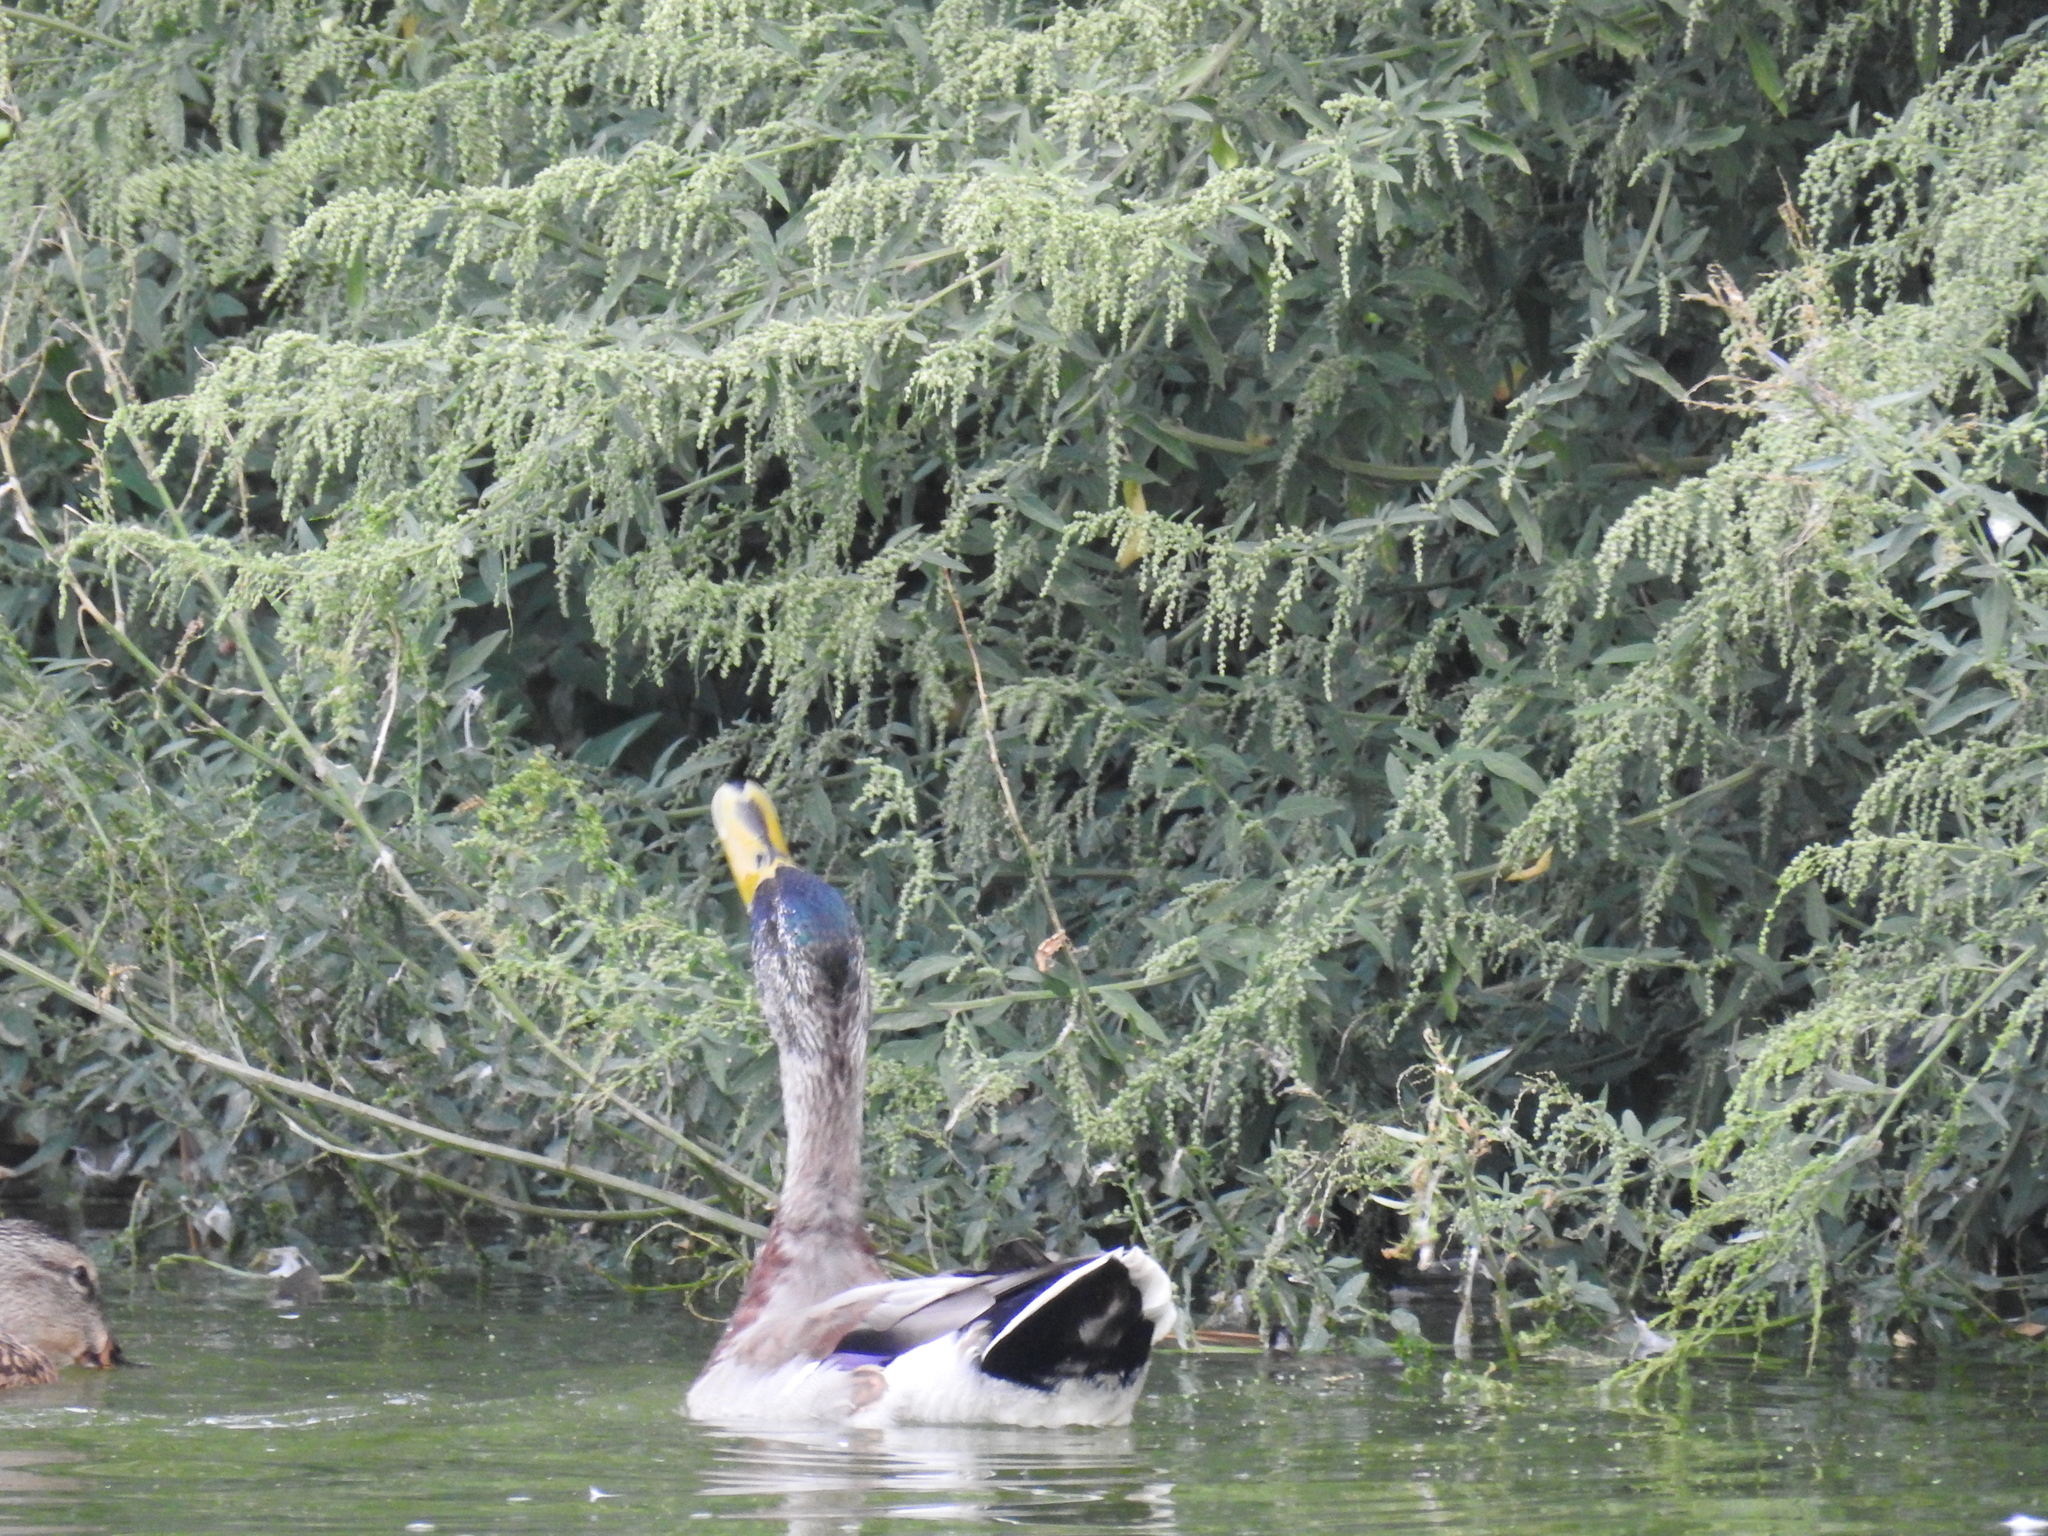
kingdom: Animalia
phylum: Chordata
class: Aves
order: Anseriformes
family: Anatidae
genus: Anas
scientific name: Anas platyrhynchos
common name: Mallard
